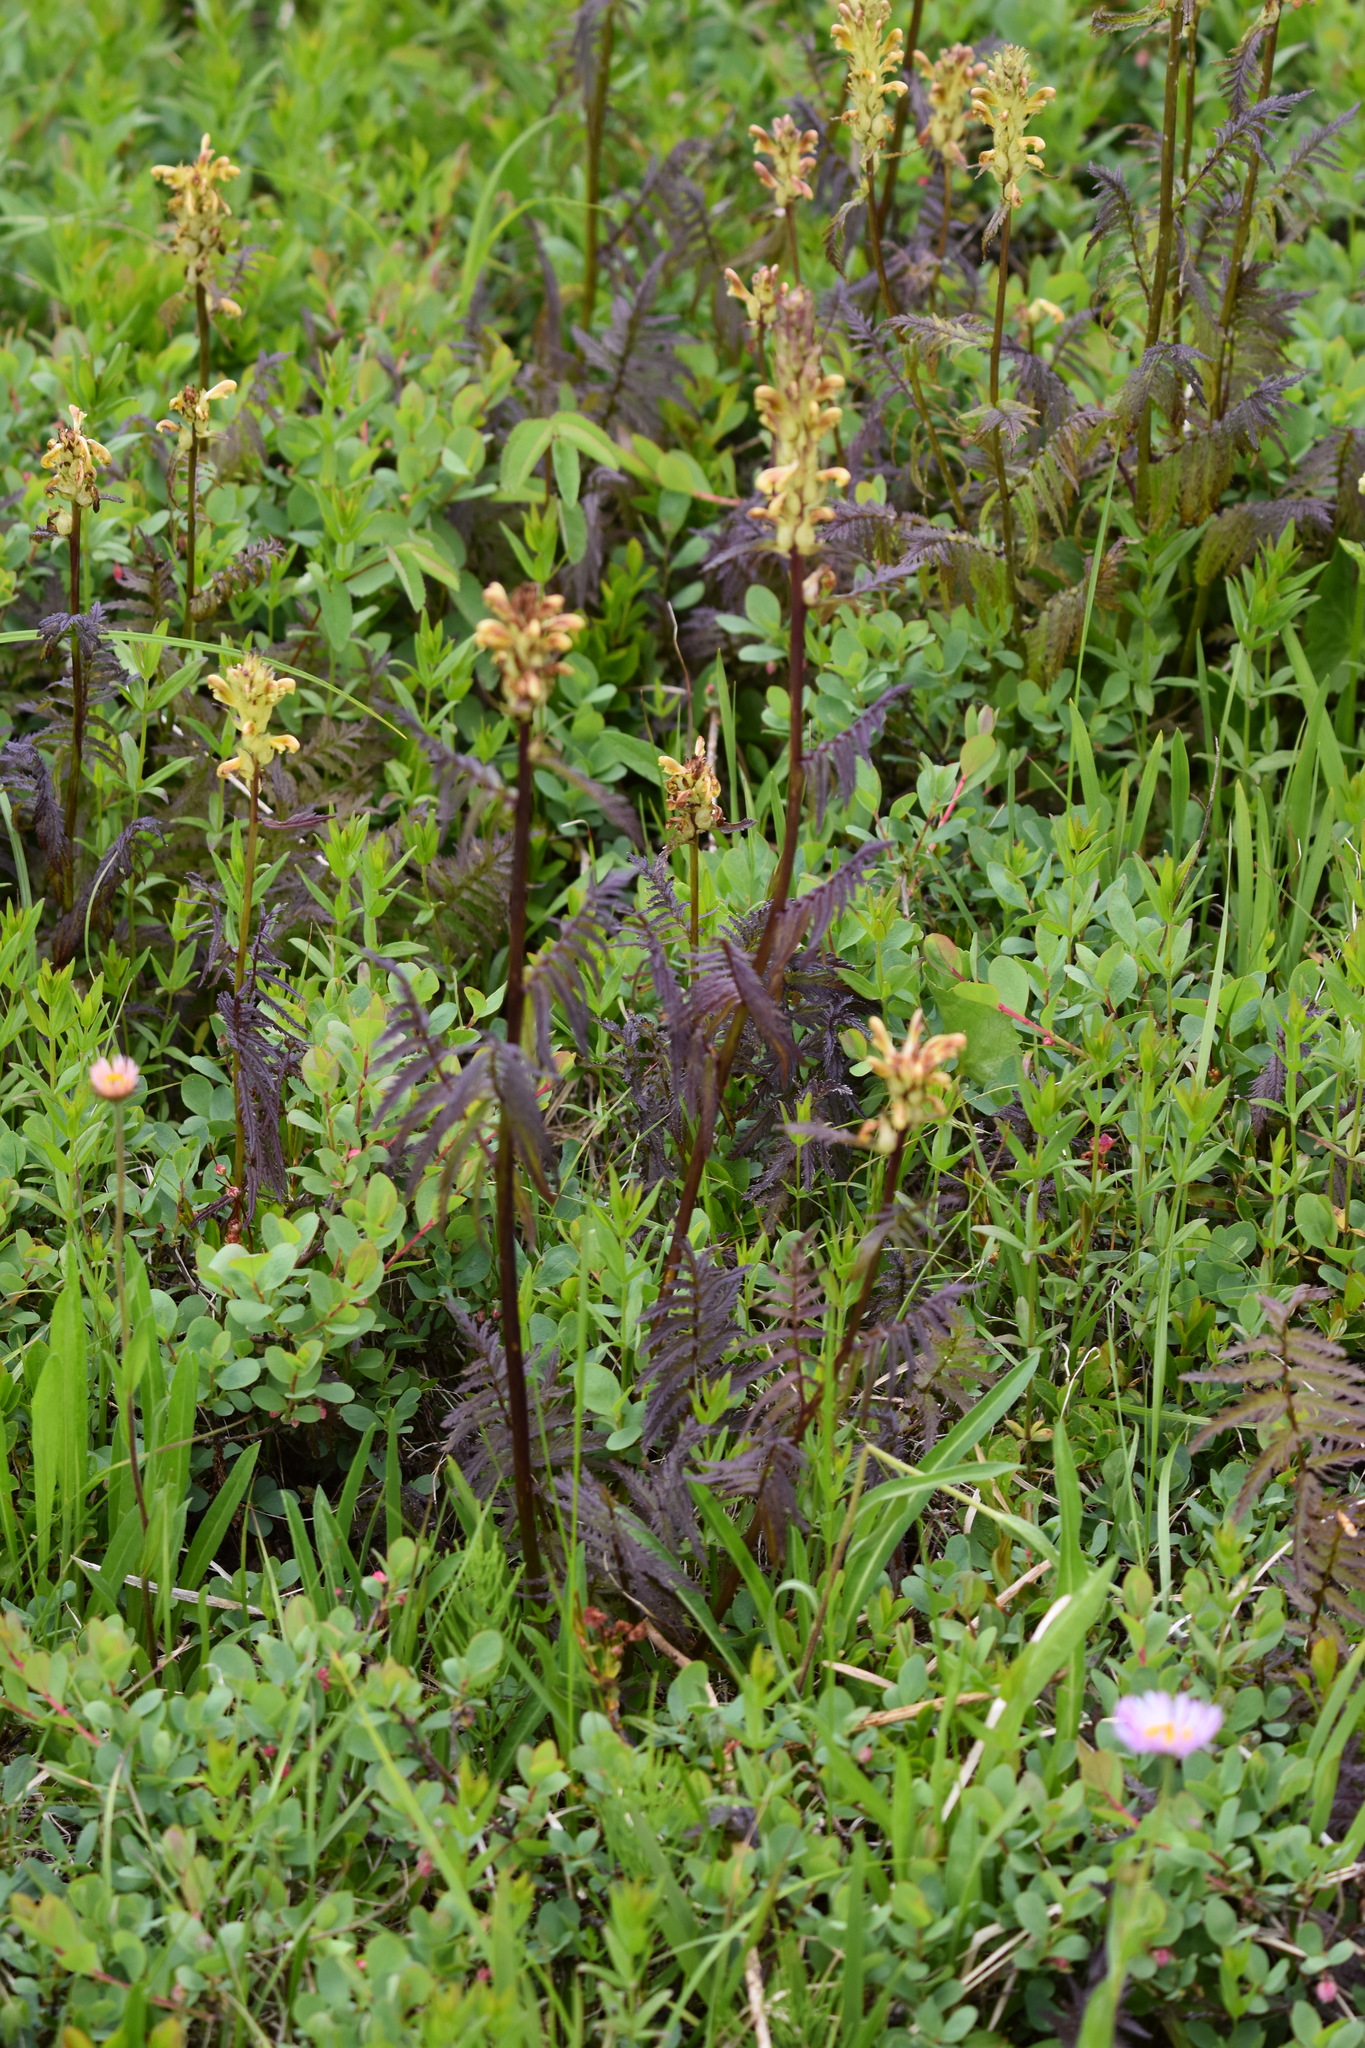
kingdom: Plantae
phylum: Tracheophyta
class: Magnoliopsida
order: Lamiales
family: Orobanchaceae
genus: Pedicularis
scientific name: Pedicularis bracteosa
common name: Bracted lousewort
